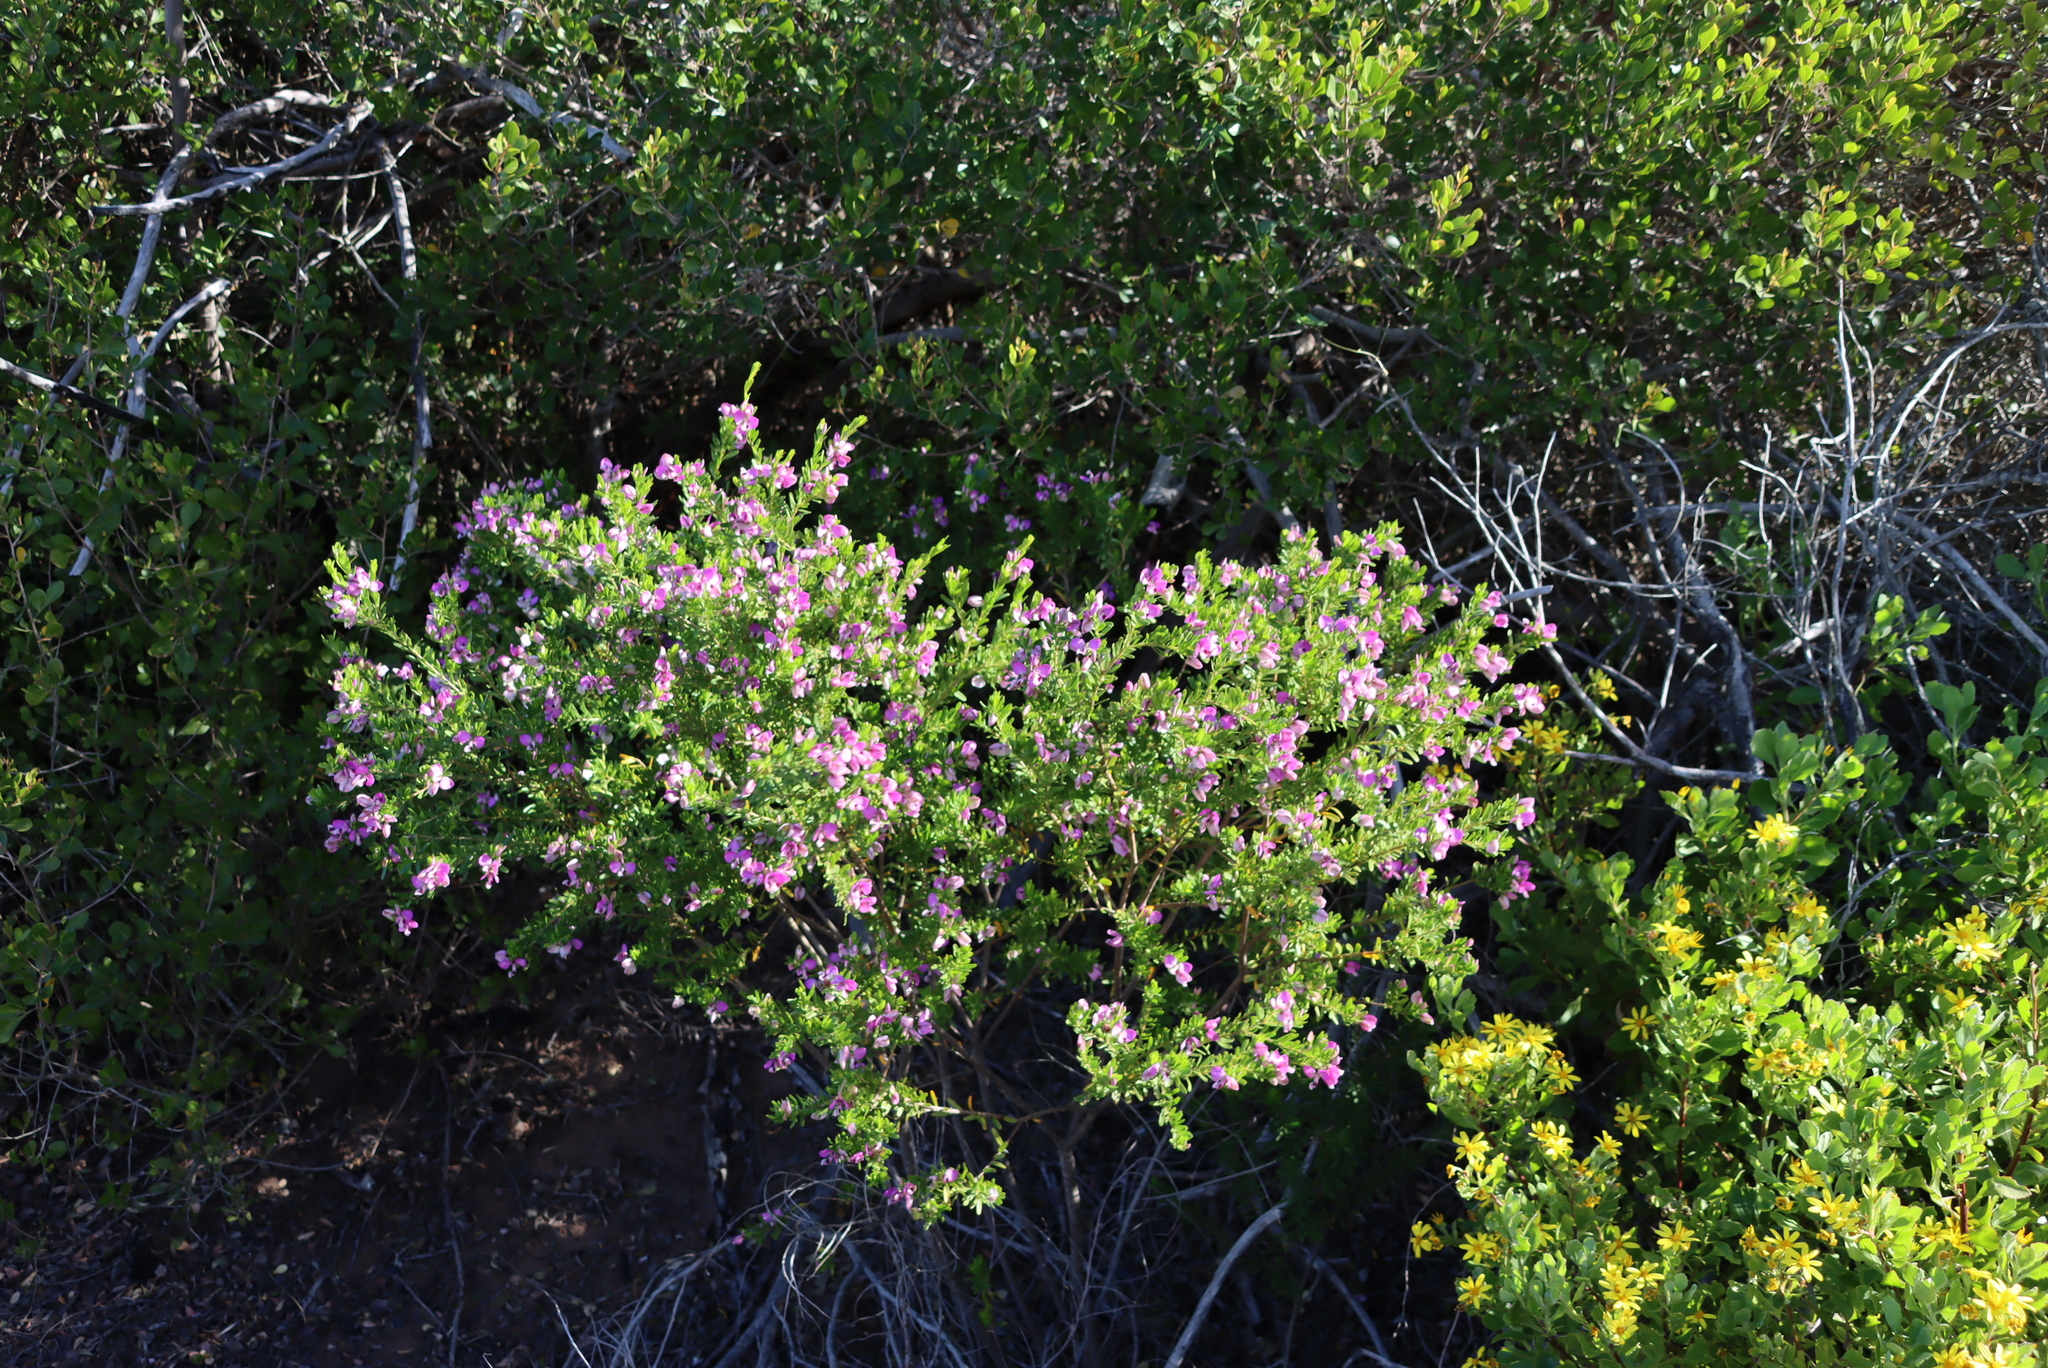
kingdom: Plantae
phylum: Tracheophyta
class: Magnoliopsida
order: Fabales
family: Polygalaceae
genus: Polygala
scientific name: Polygala myrtifolia
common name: Myrtle-leaf milkwort
